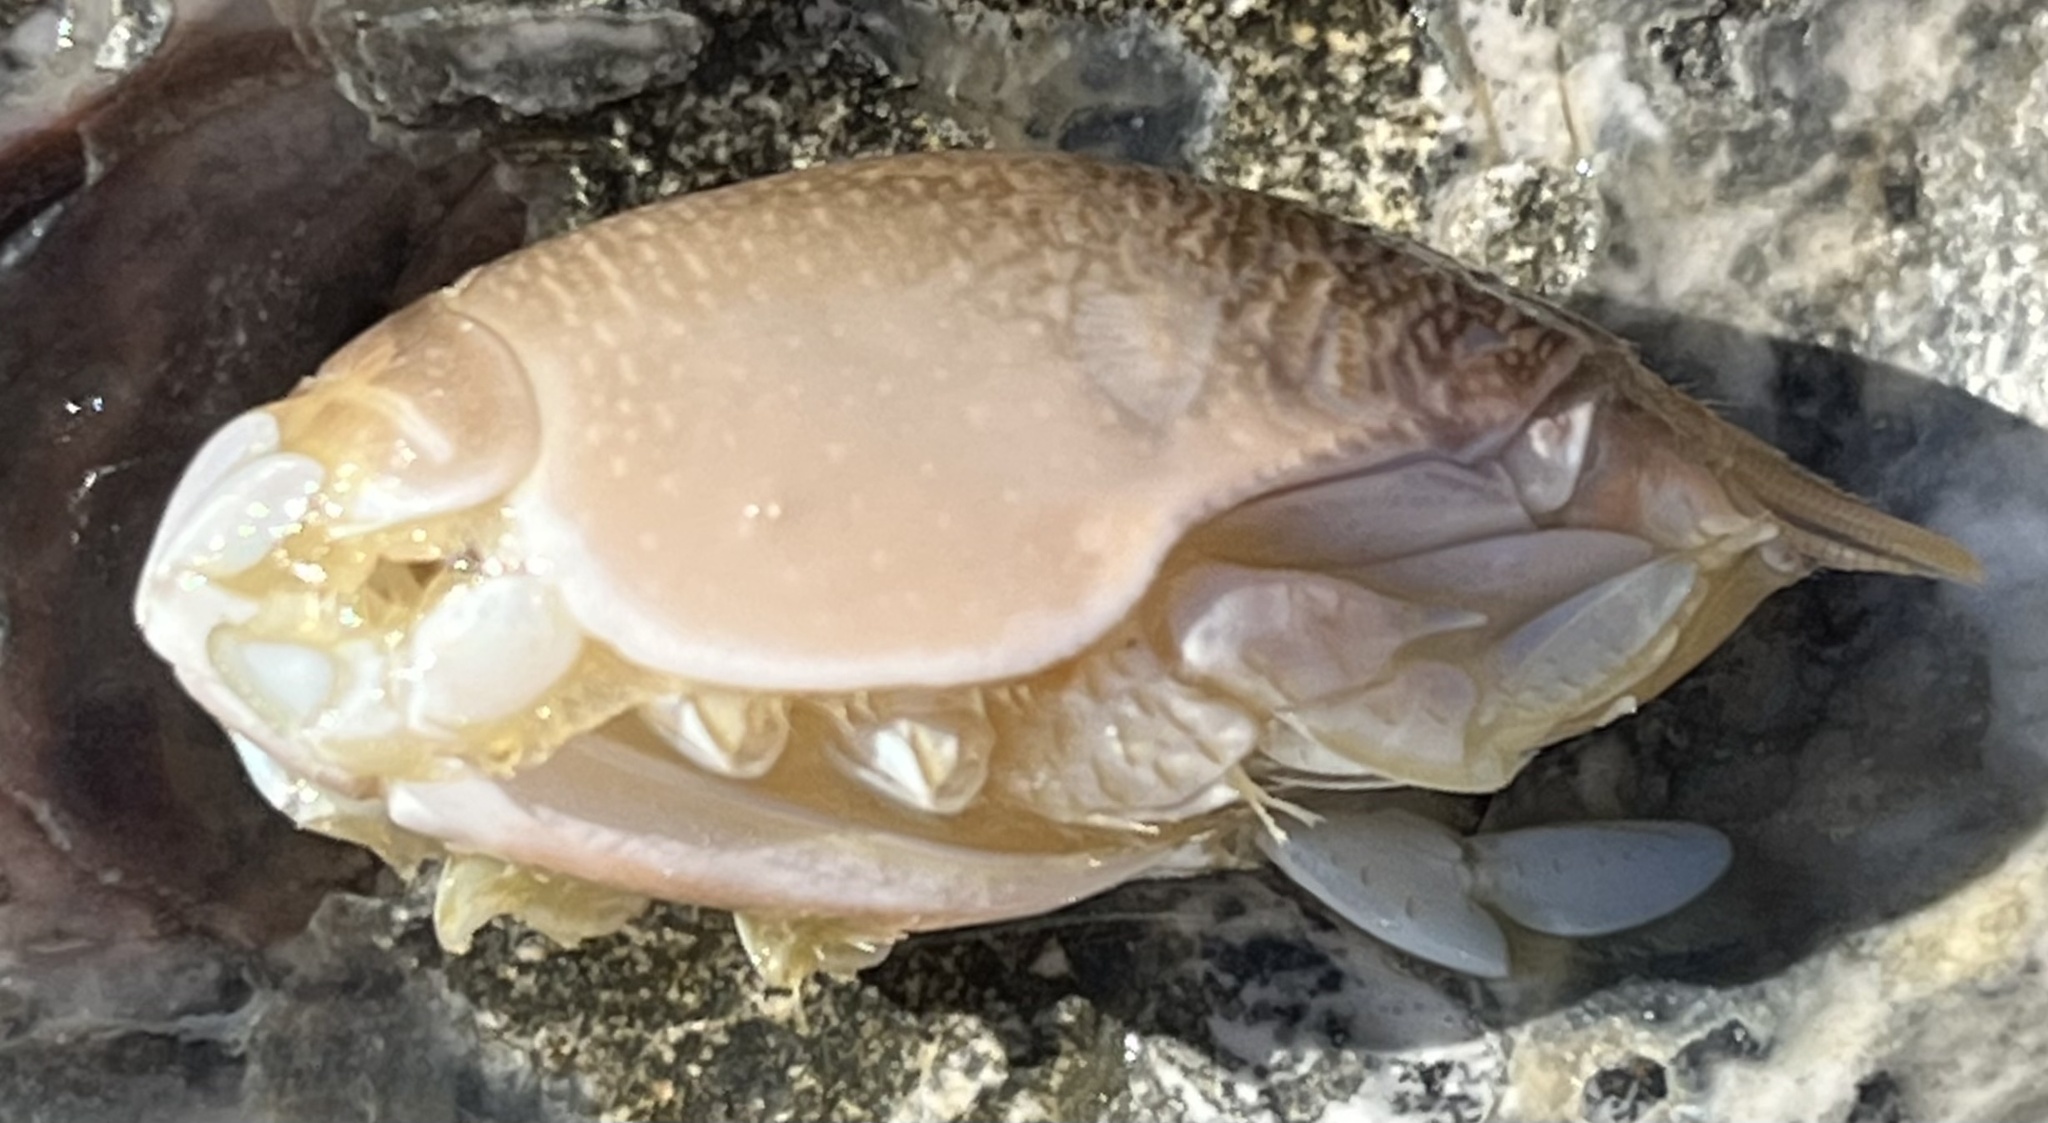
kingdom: Animalia
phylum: Arthropoda
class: Malacostraca
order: Decapoda
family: Hippidae
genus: Emerita
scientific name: Emerita talpoida
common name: Atlantic sand crab
